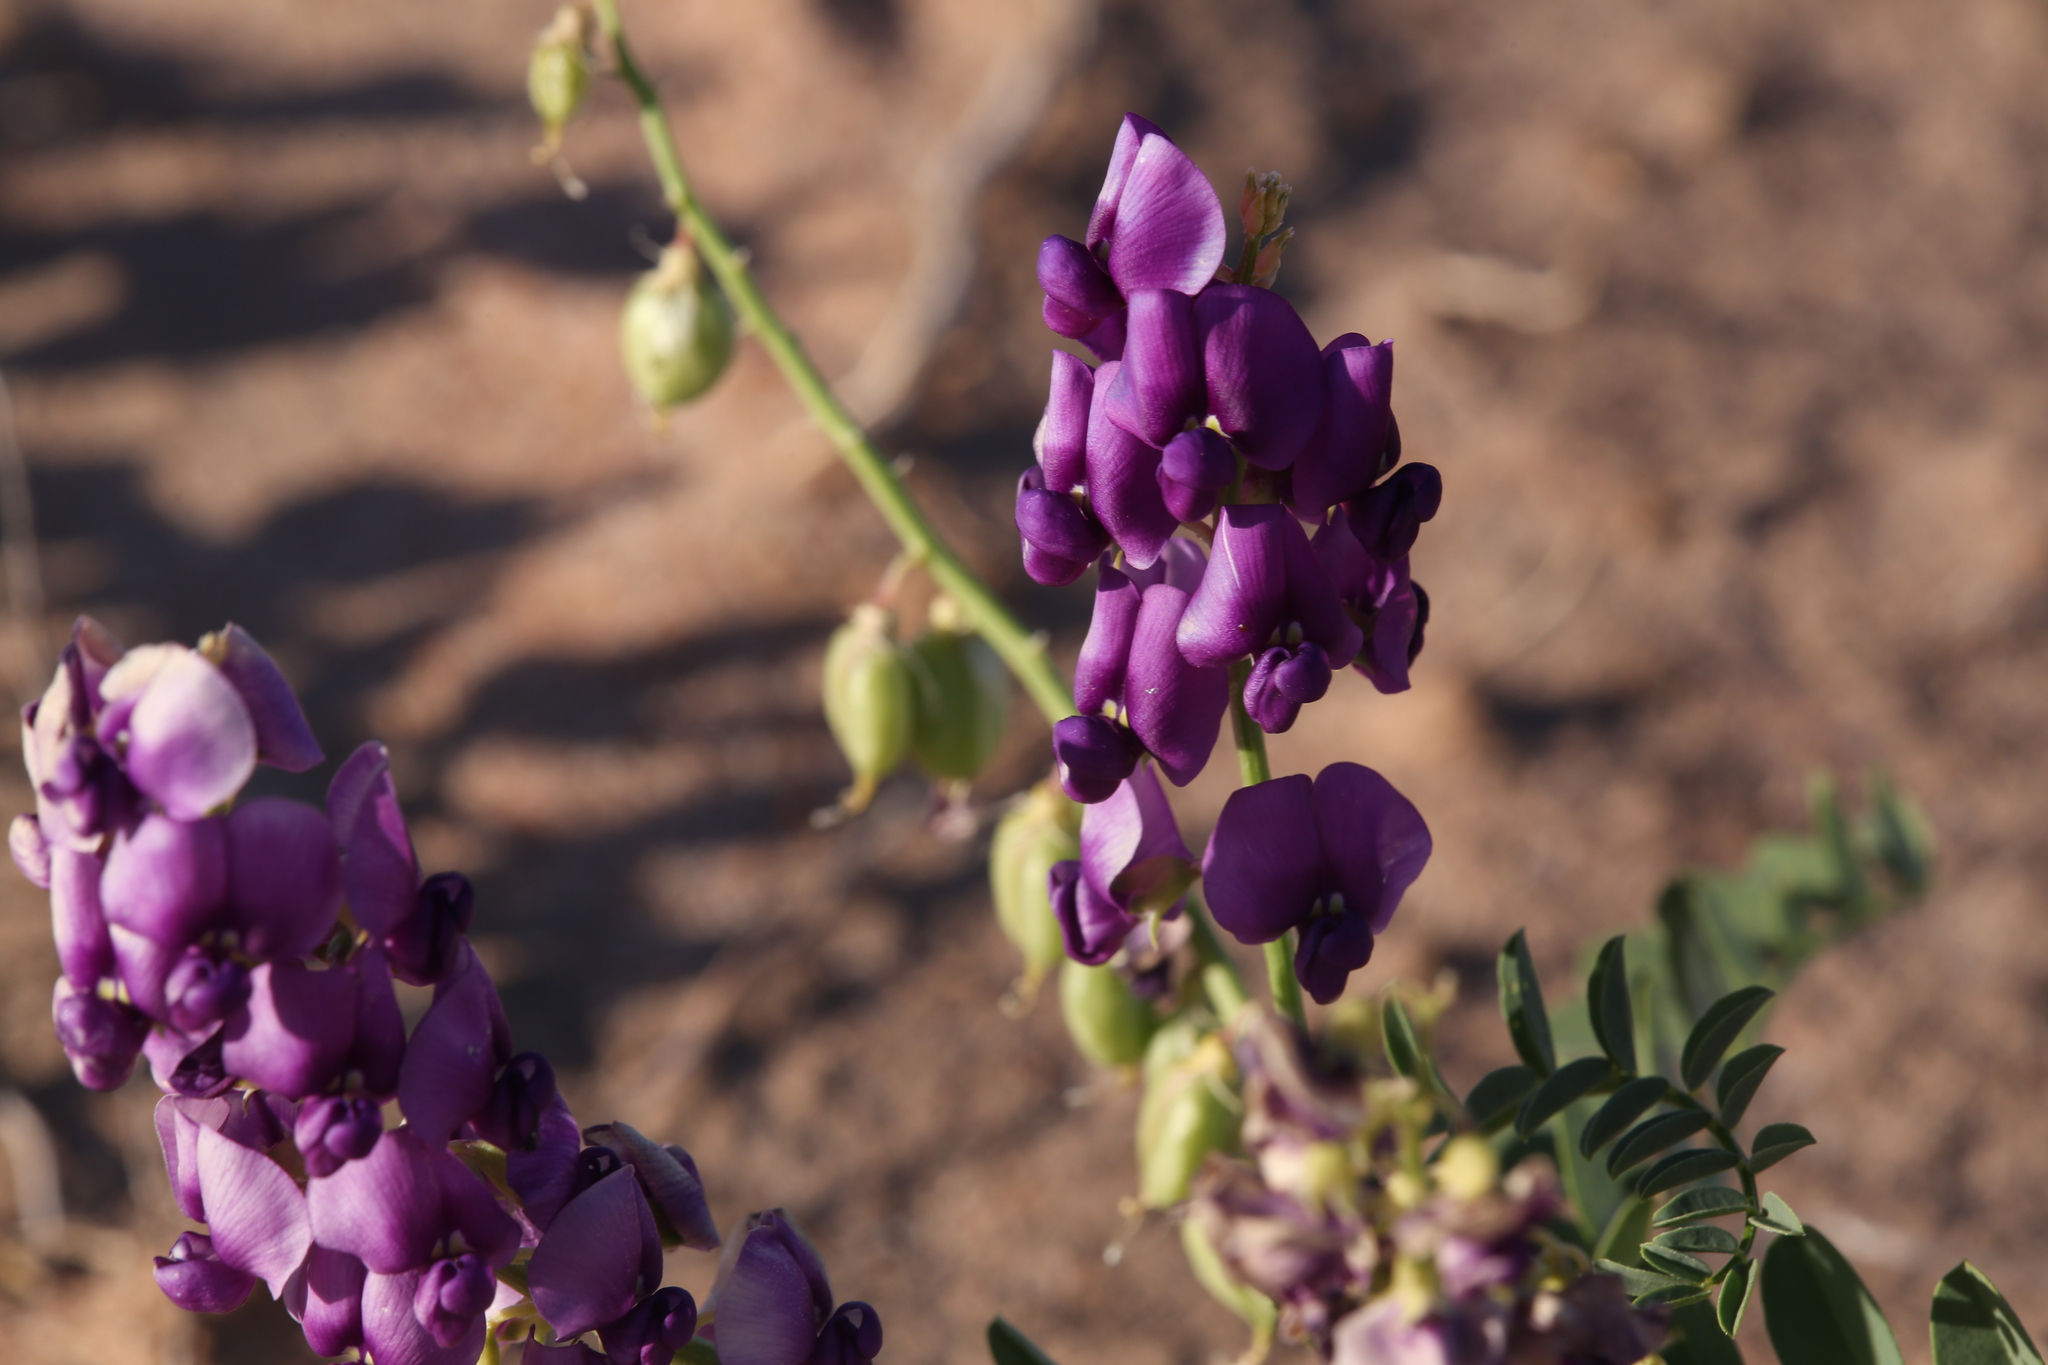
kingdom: Plantae
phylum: Tracheophyta
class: Magnoliopsida
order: Fabales
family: Fabaceae
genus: Swainsona
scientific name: Swainsona pterostylis
